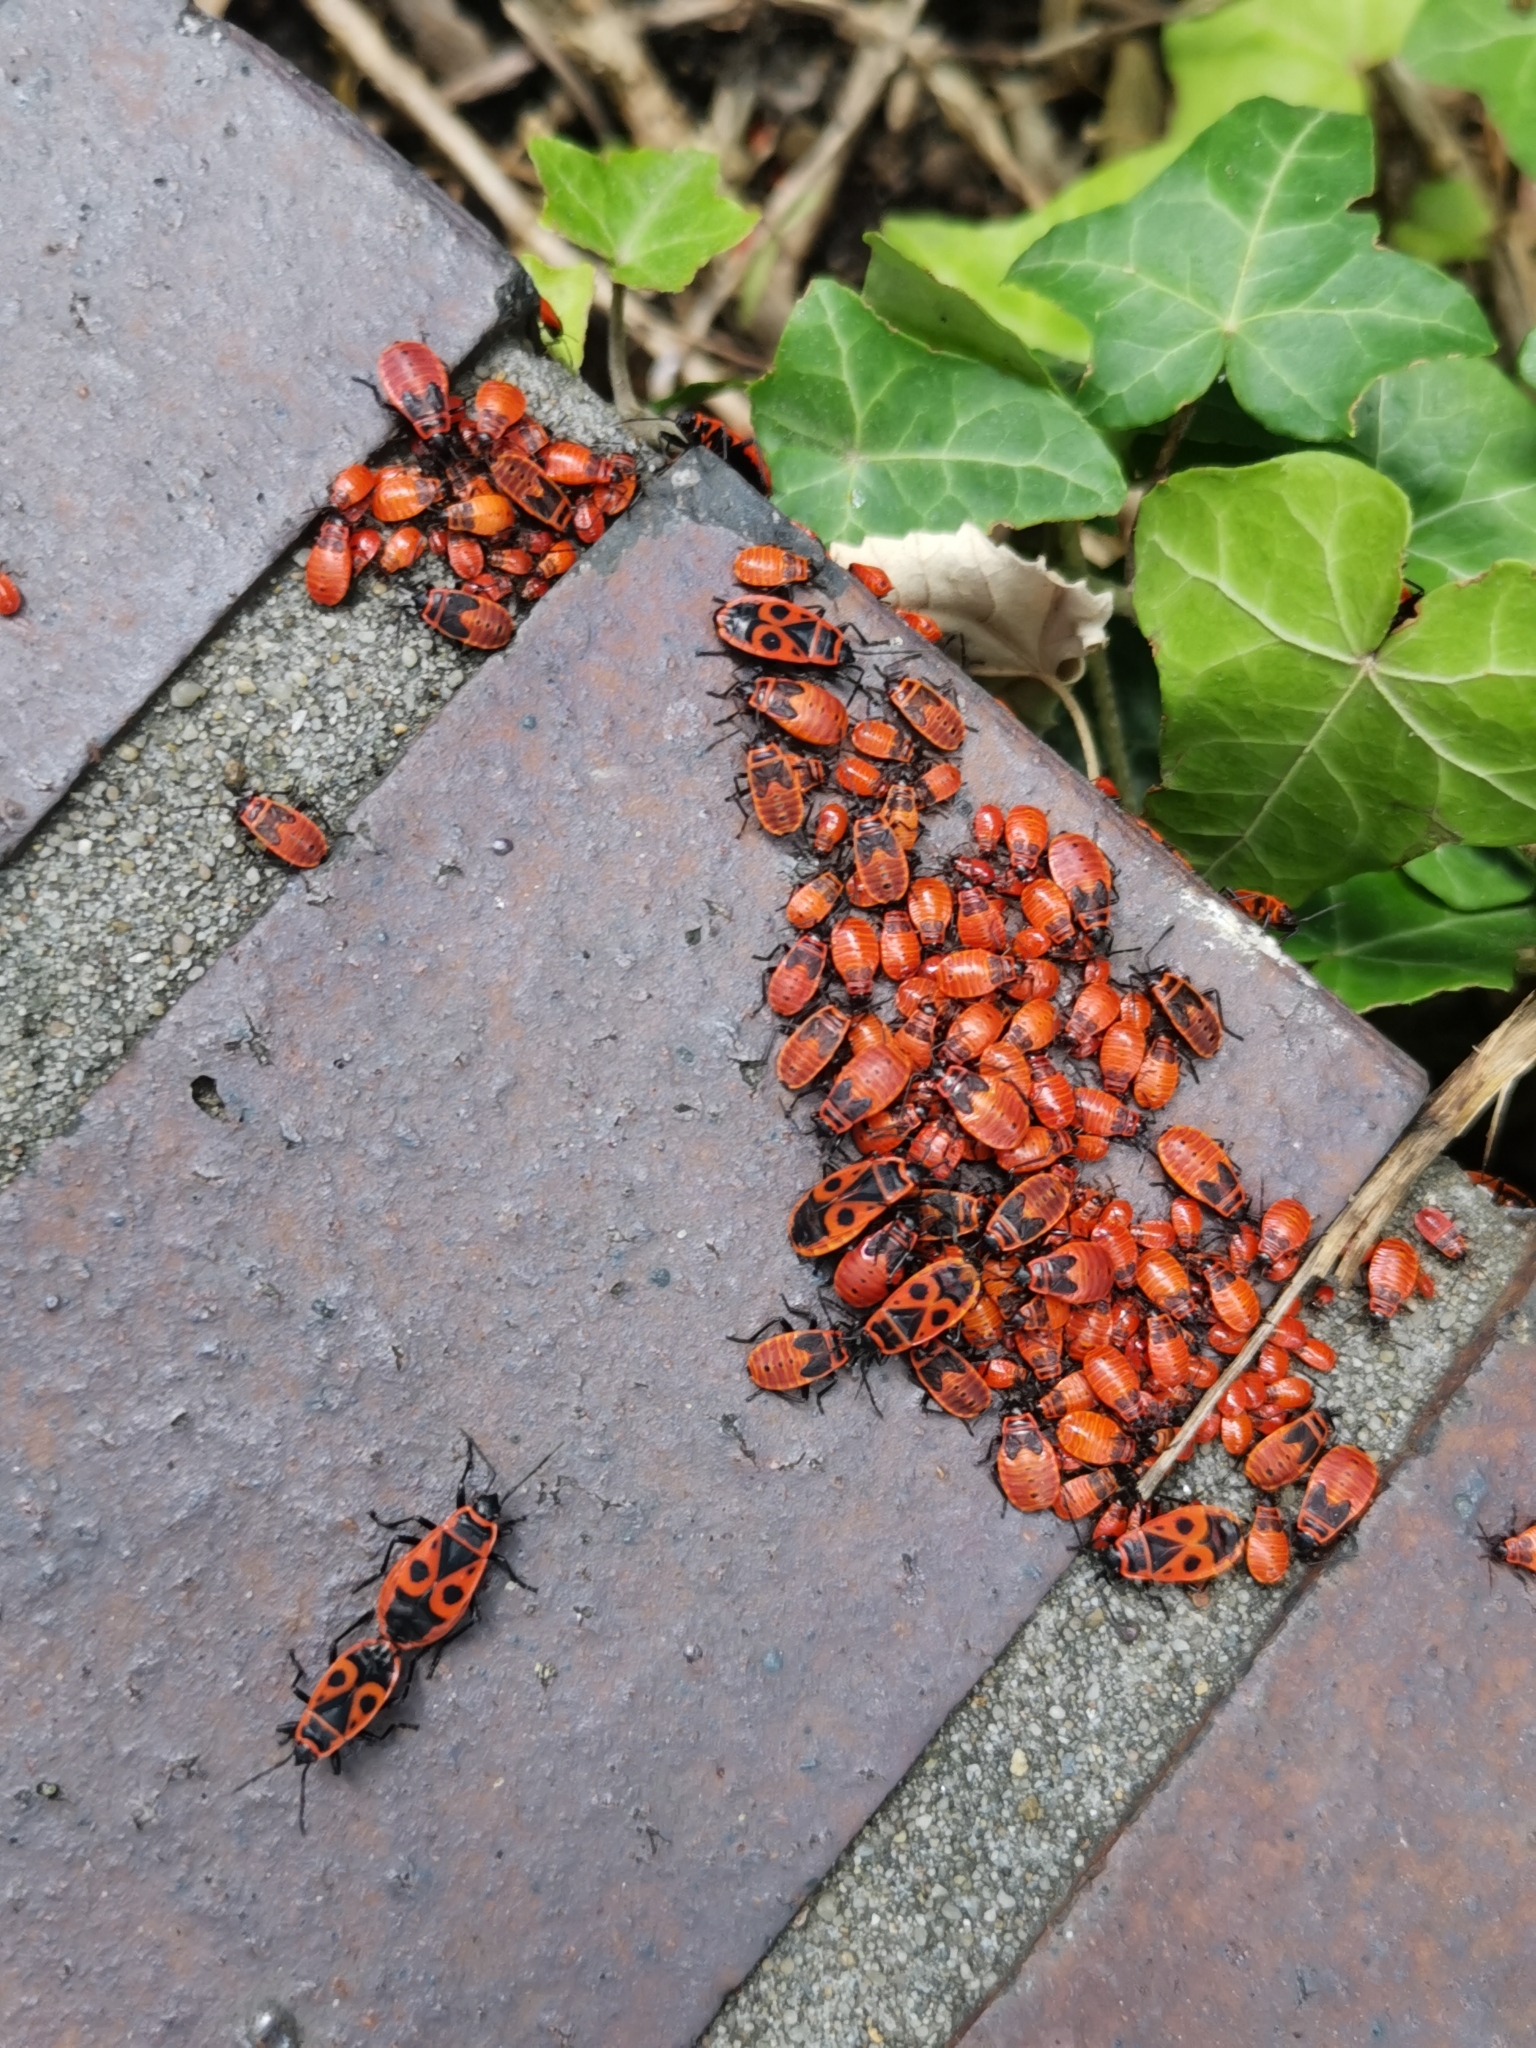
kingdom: Animalia
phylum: Arthropoda
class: Insecta
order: Hemiptera
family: Pyrrhocoridae
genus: Pyrrhocoris
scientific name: Pyrrhocoris apterus
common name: Firebug
